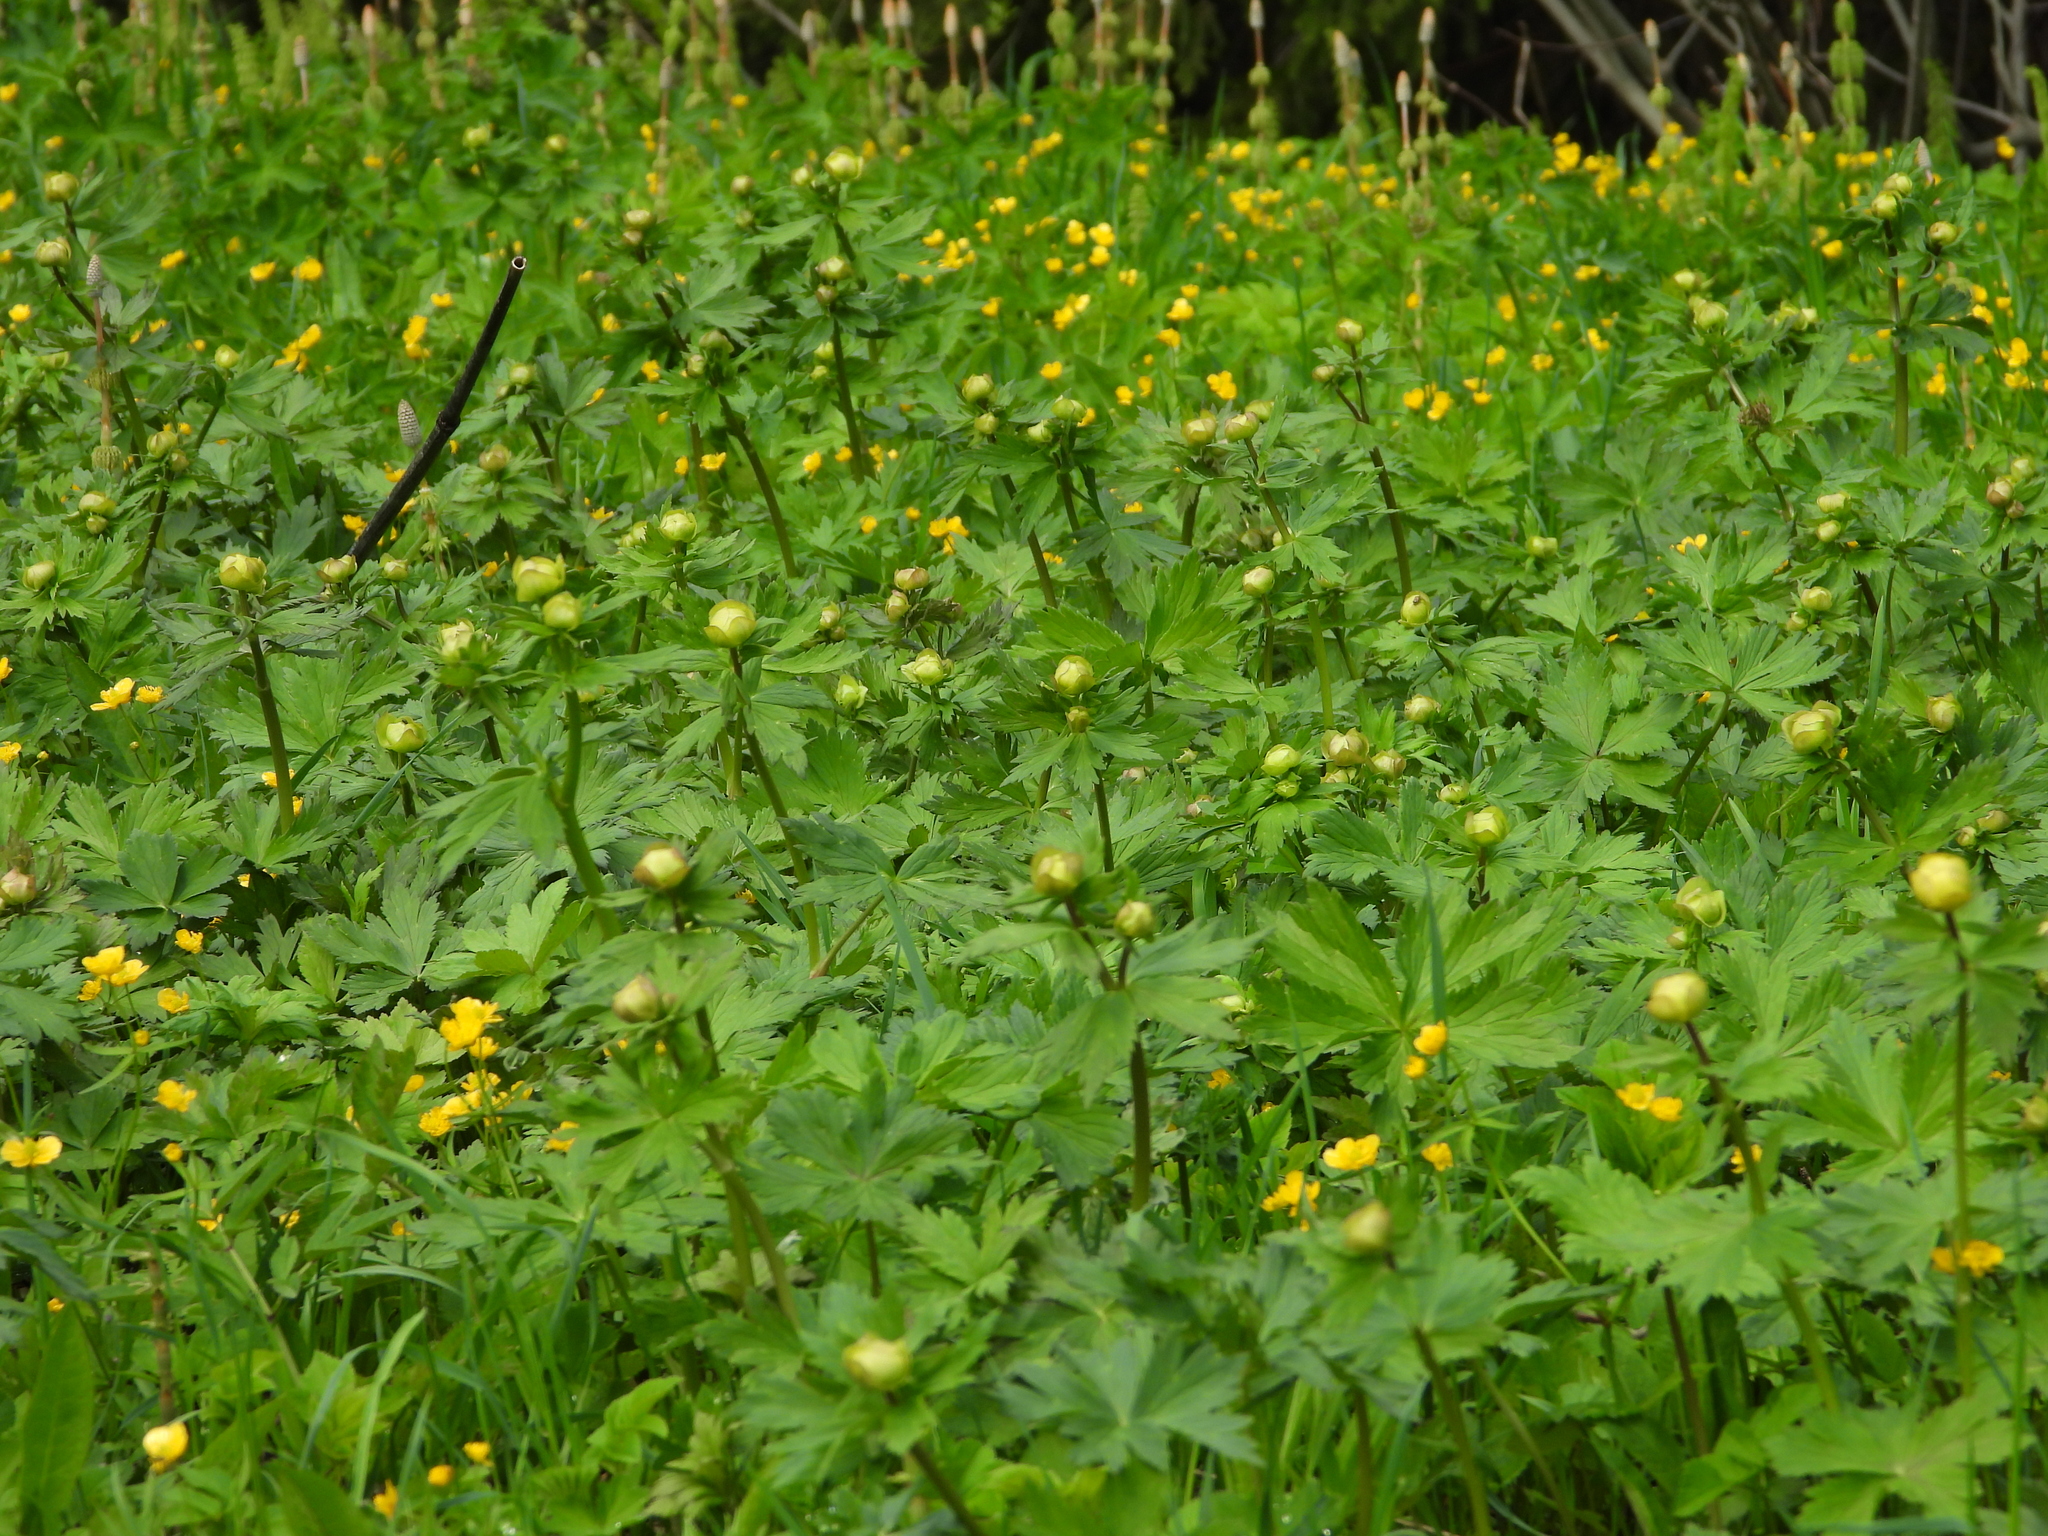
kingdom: Plantae
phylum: Tracheophyta
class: Magnoliopsida
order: Ranunculales
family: Ranunculaceae
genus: Trollius
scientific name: Trollius europaeus
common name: European globeflower
